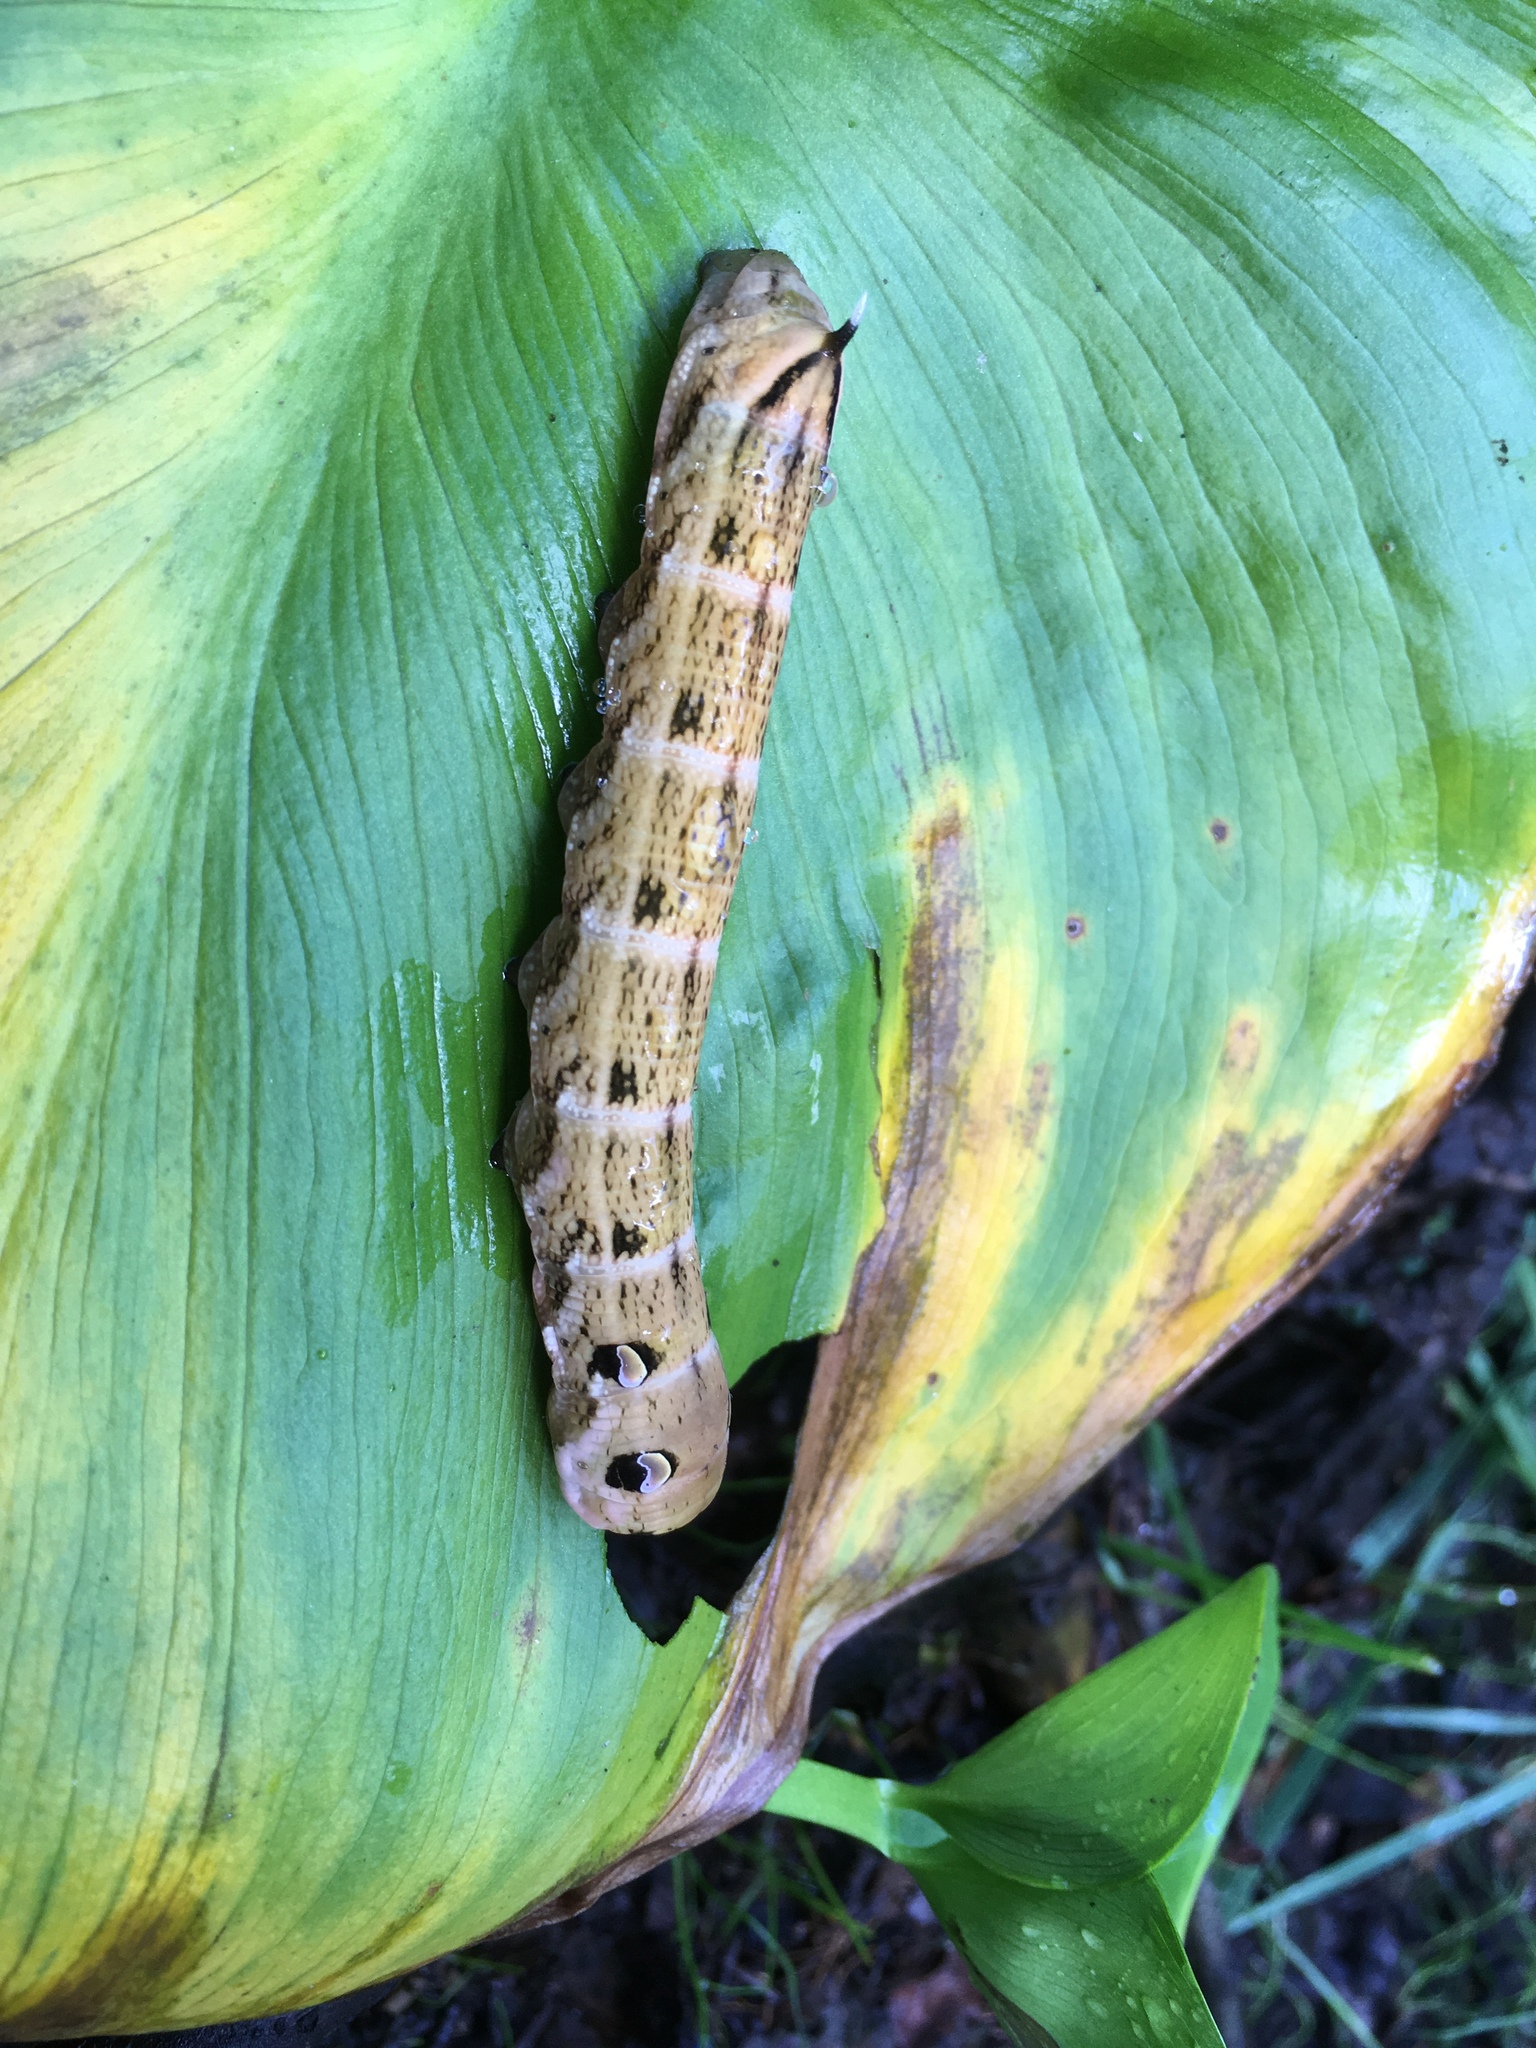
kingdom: Animalia
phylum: Arthropoda
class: Insecta
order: Lepidoptera
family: Sphingidae
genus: Deilephila
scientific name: Deilephila elpenor
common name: Elephant hawk-moth
